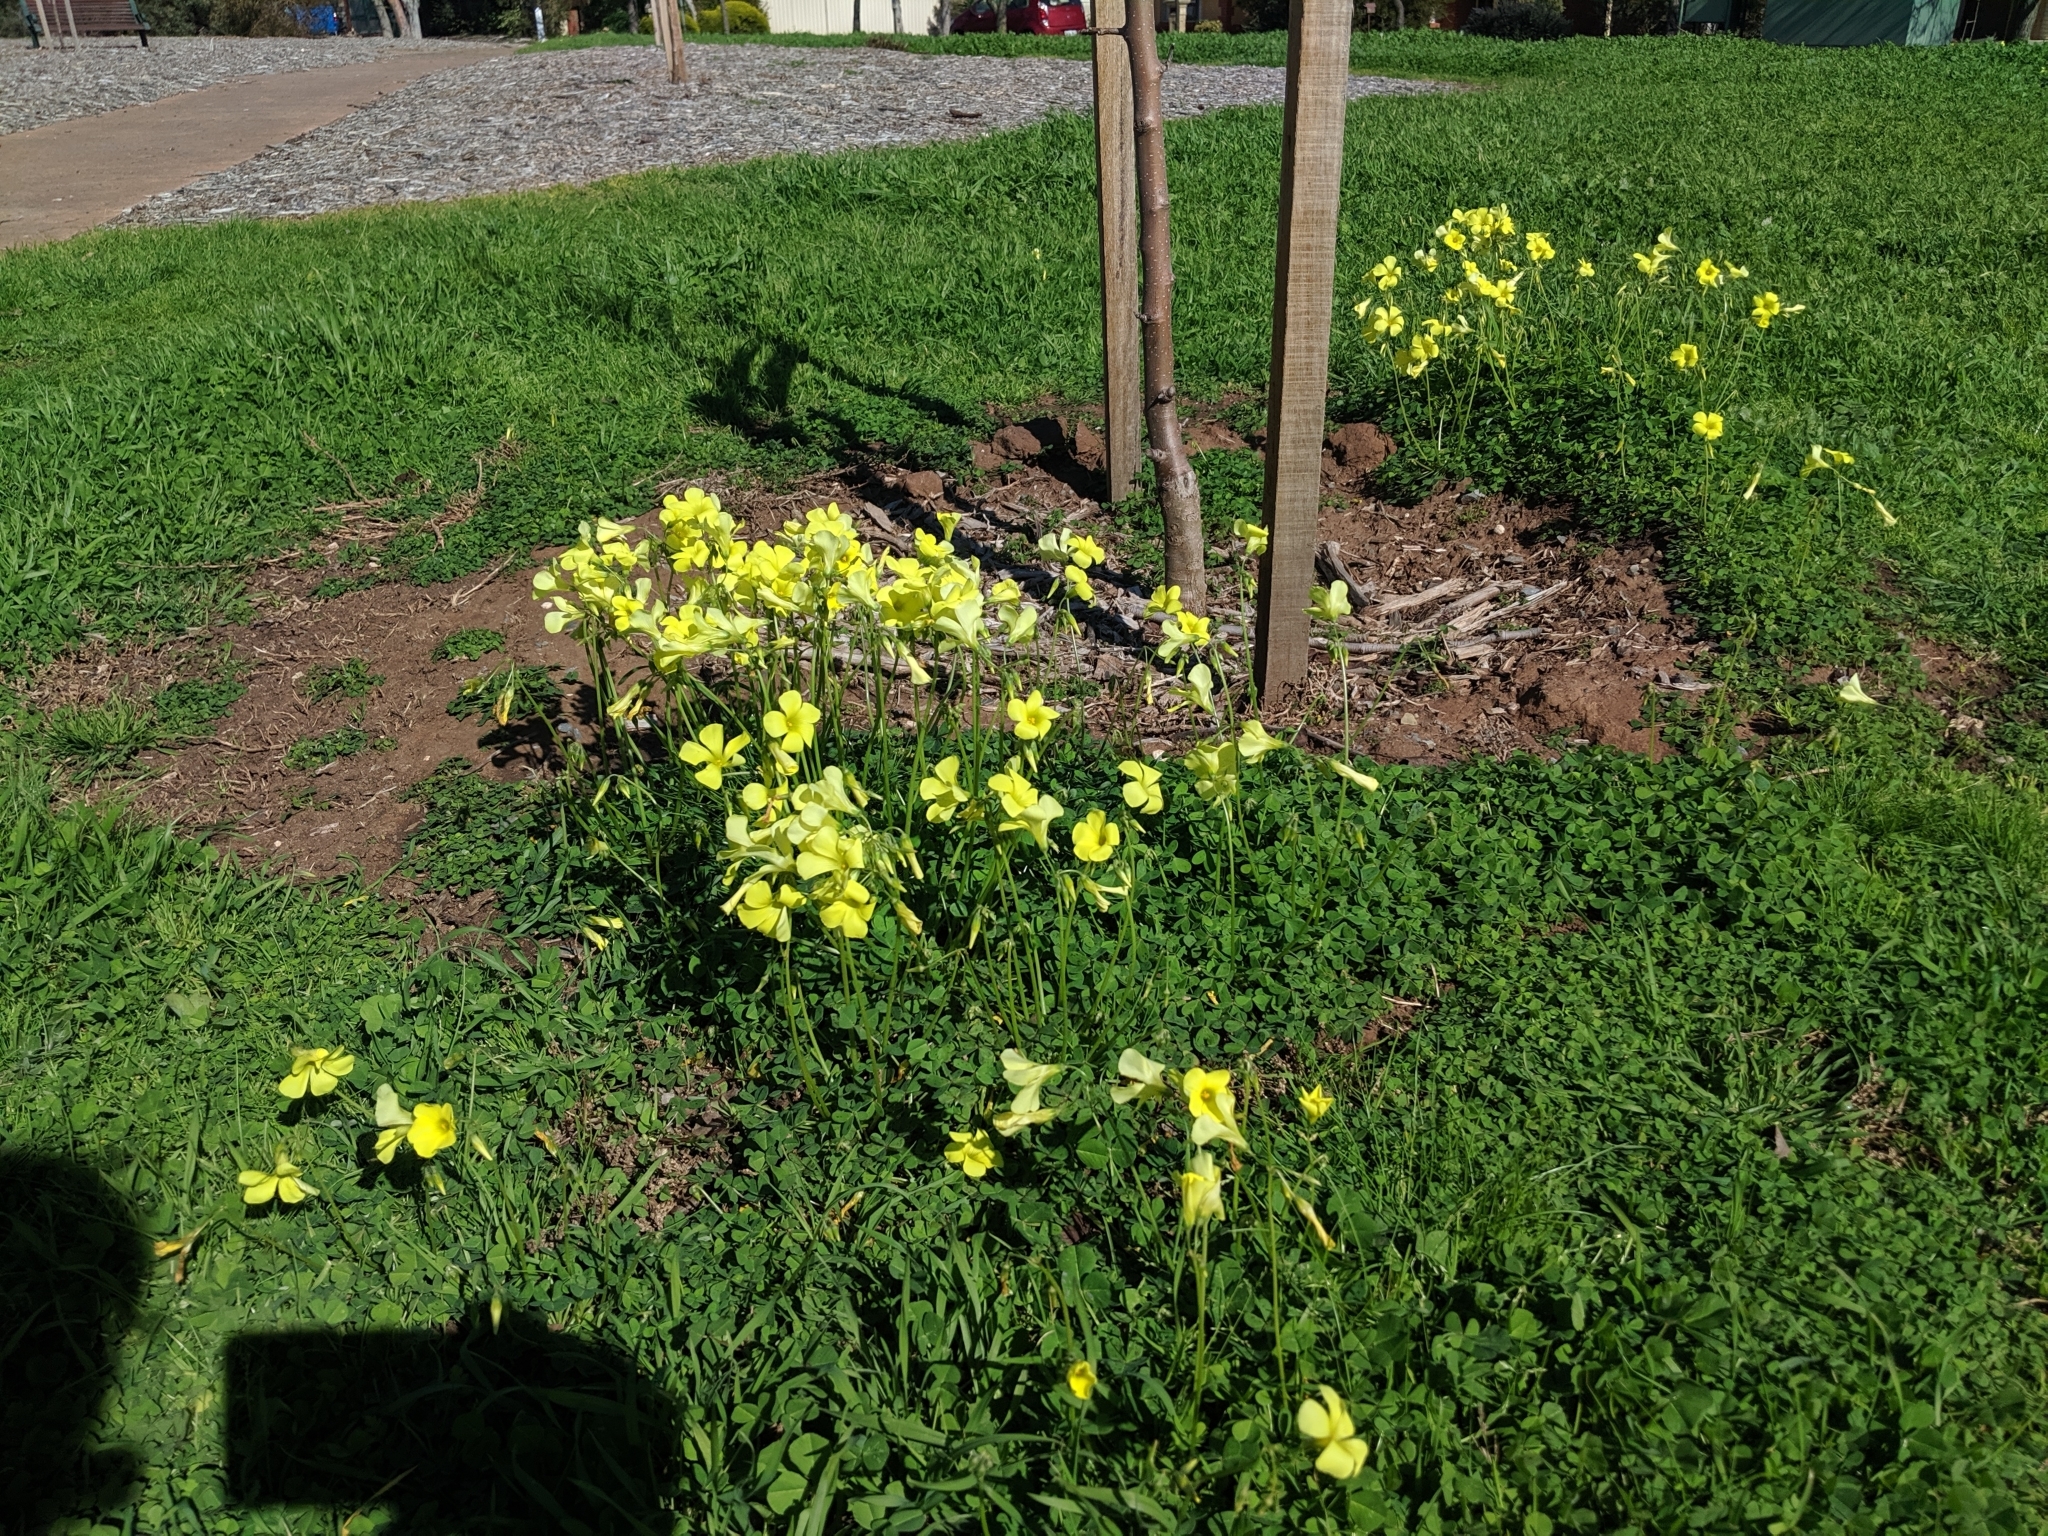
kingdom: Plantae
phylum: Tracheophyta
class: Magnoliopsida
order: Oxalidales
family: Oxalidaceae
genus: Oxalis
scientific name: Oxalis pes-caprae
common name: Bermuda-buttercup
